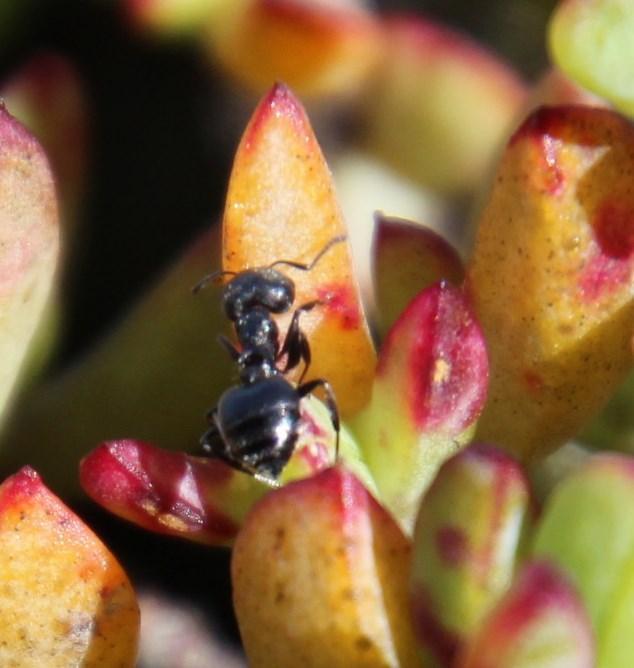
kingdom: Animalia
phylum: Arthropoda
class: Insecta
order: Hymenoptera
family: Formicidae
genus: Crematogaster
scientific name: Crematogaster peringueyi
